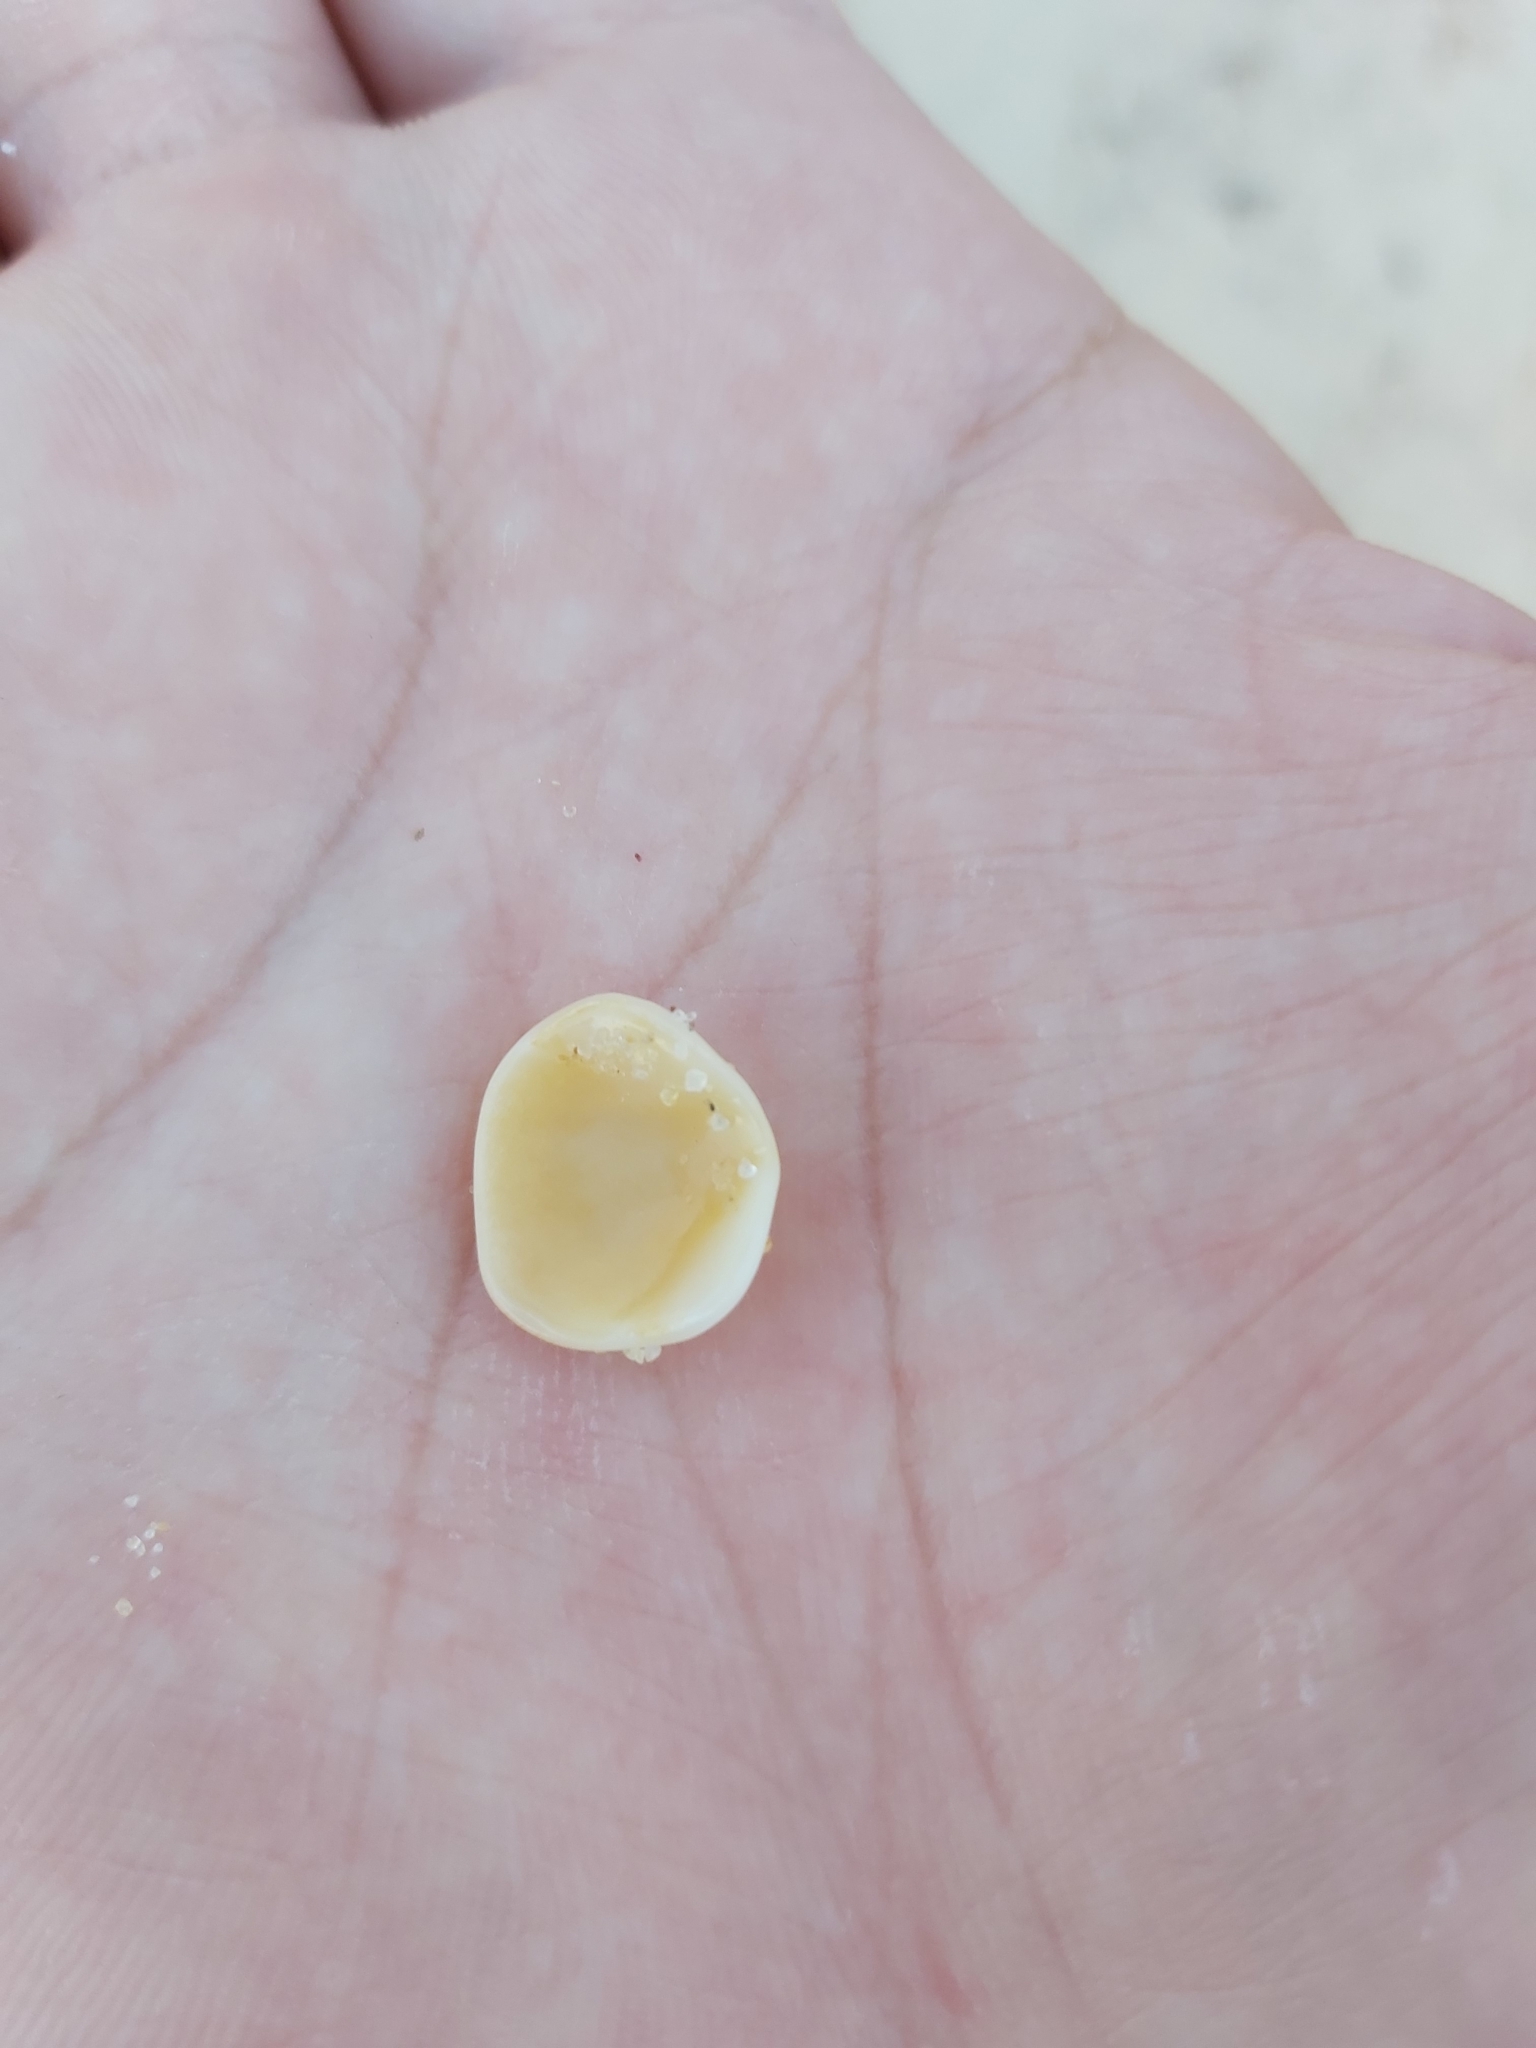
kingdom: Animalia
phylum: Mollusca
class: Bivalvia
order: Arcida
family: Glycymerididae
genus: Glycymeris
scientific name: Glycymeris grayana
